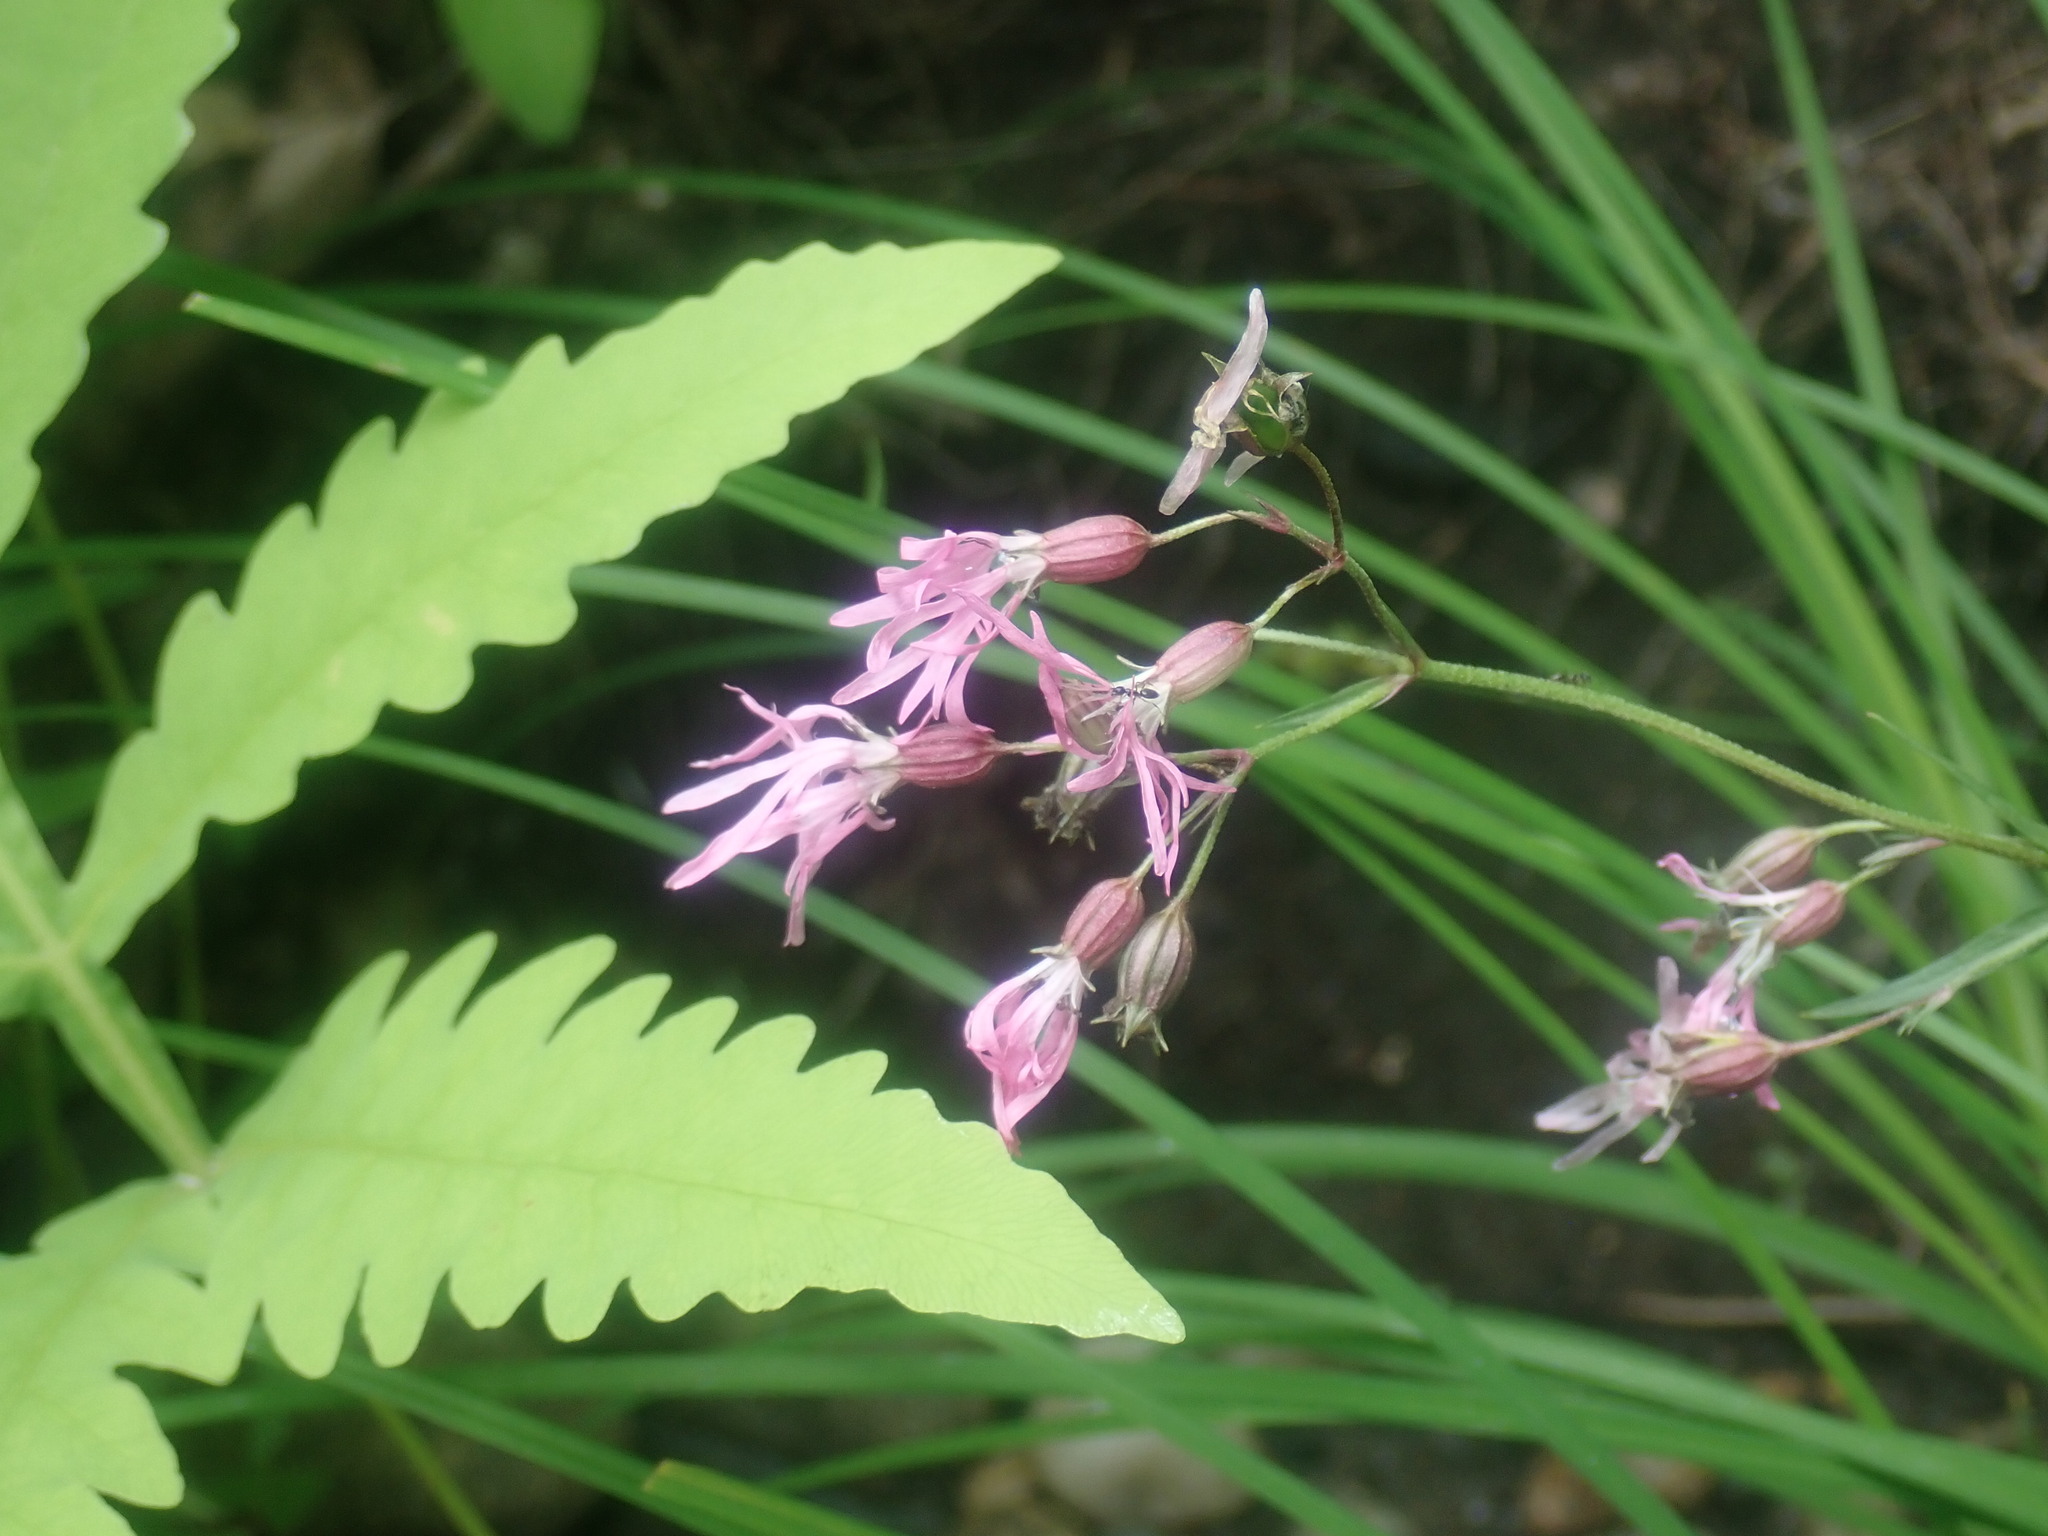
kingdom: Plantae
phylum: Tracheophyta
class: Magnoliopsida
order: Caryophyllales
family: Caryophyllaceae
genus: Silene
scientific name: Silene flos-cuculi
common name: Ragged-robin
